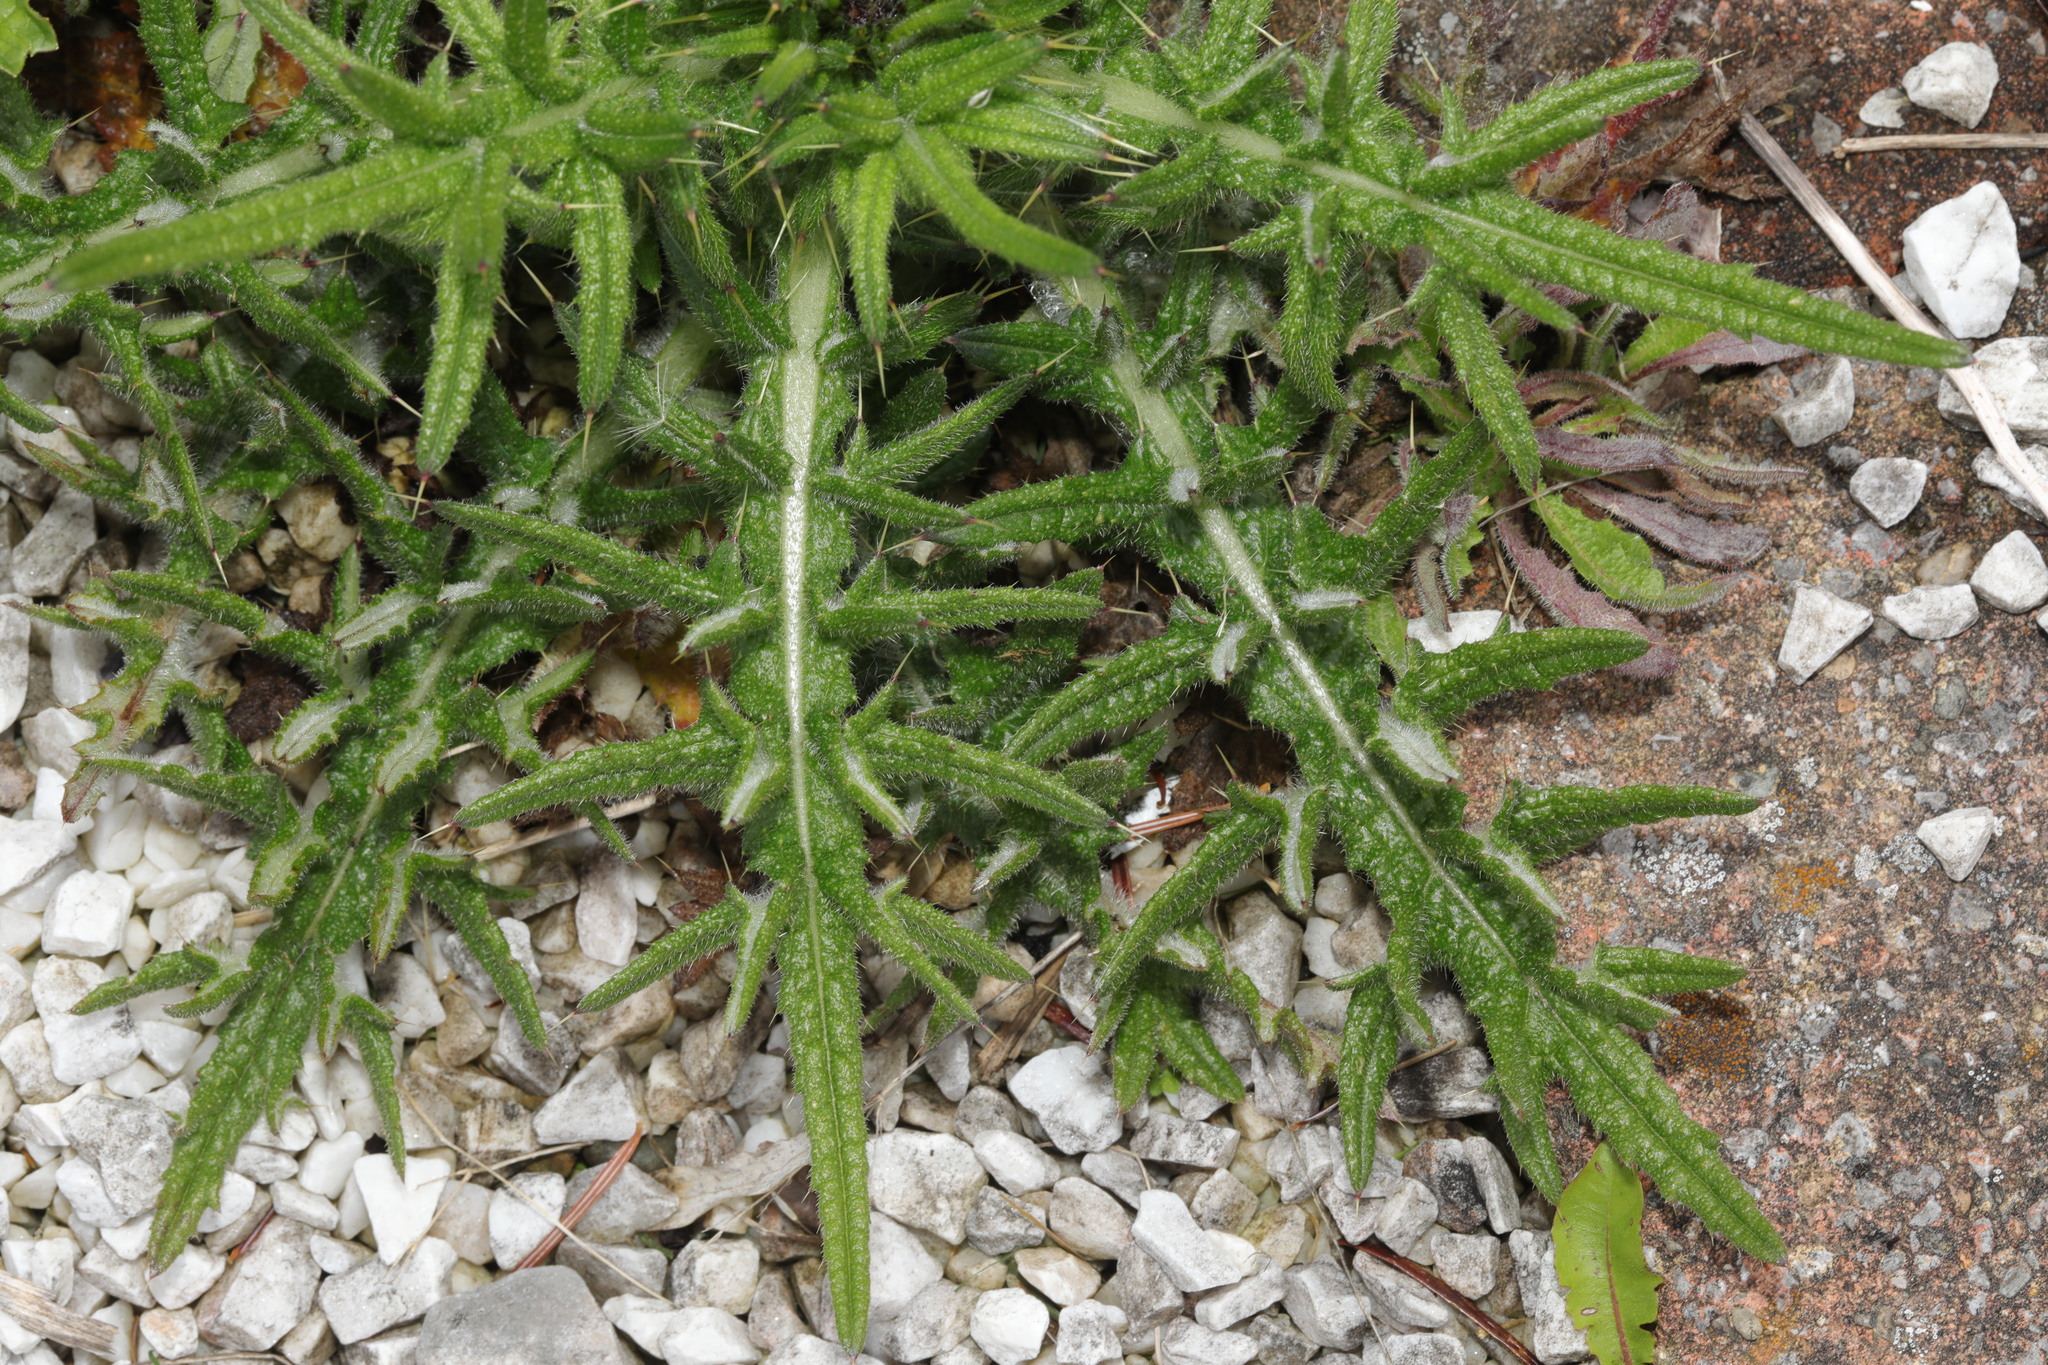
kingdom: Plantae
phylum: Tracheophyta
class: Magnoliopsida
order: Asterales
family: Asteraceae
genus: Cirsium
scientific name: Cirsium vulgare
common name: Bull thistle
